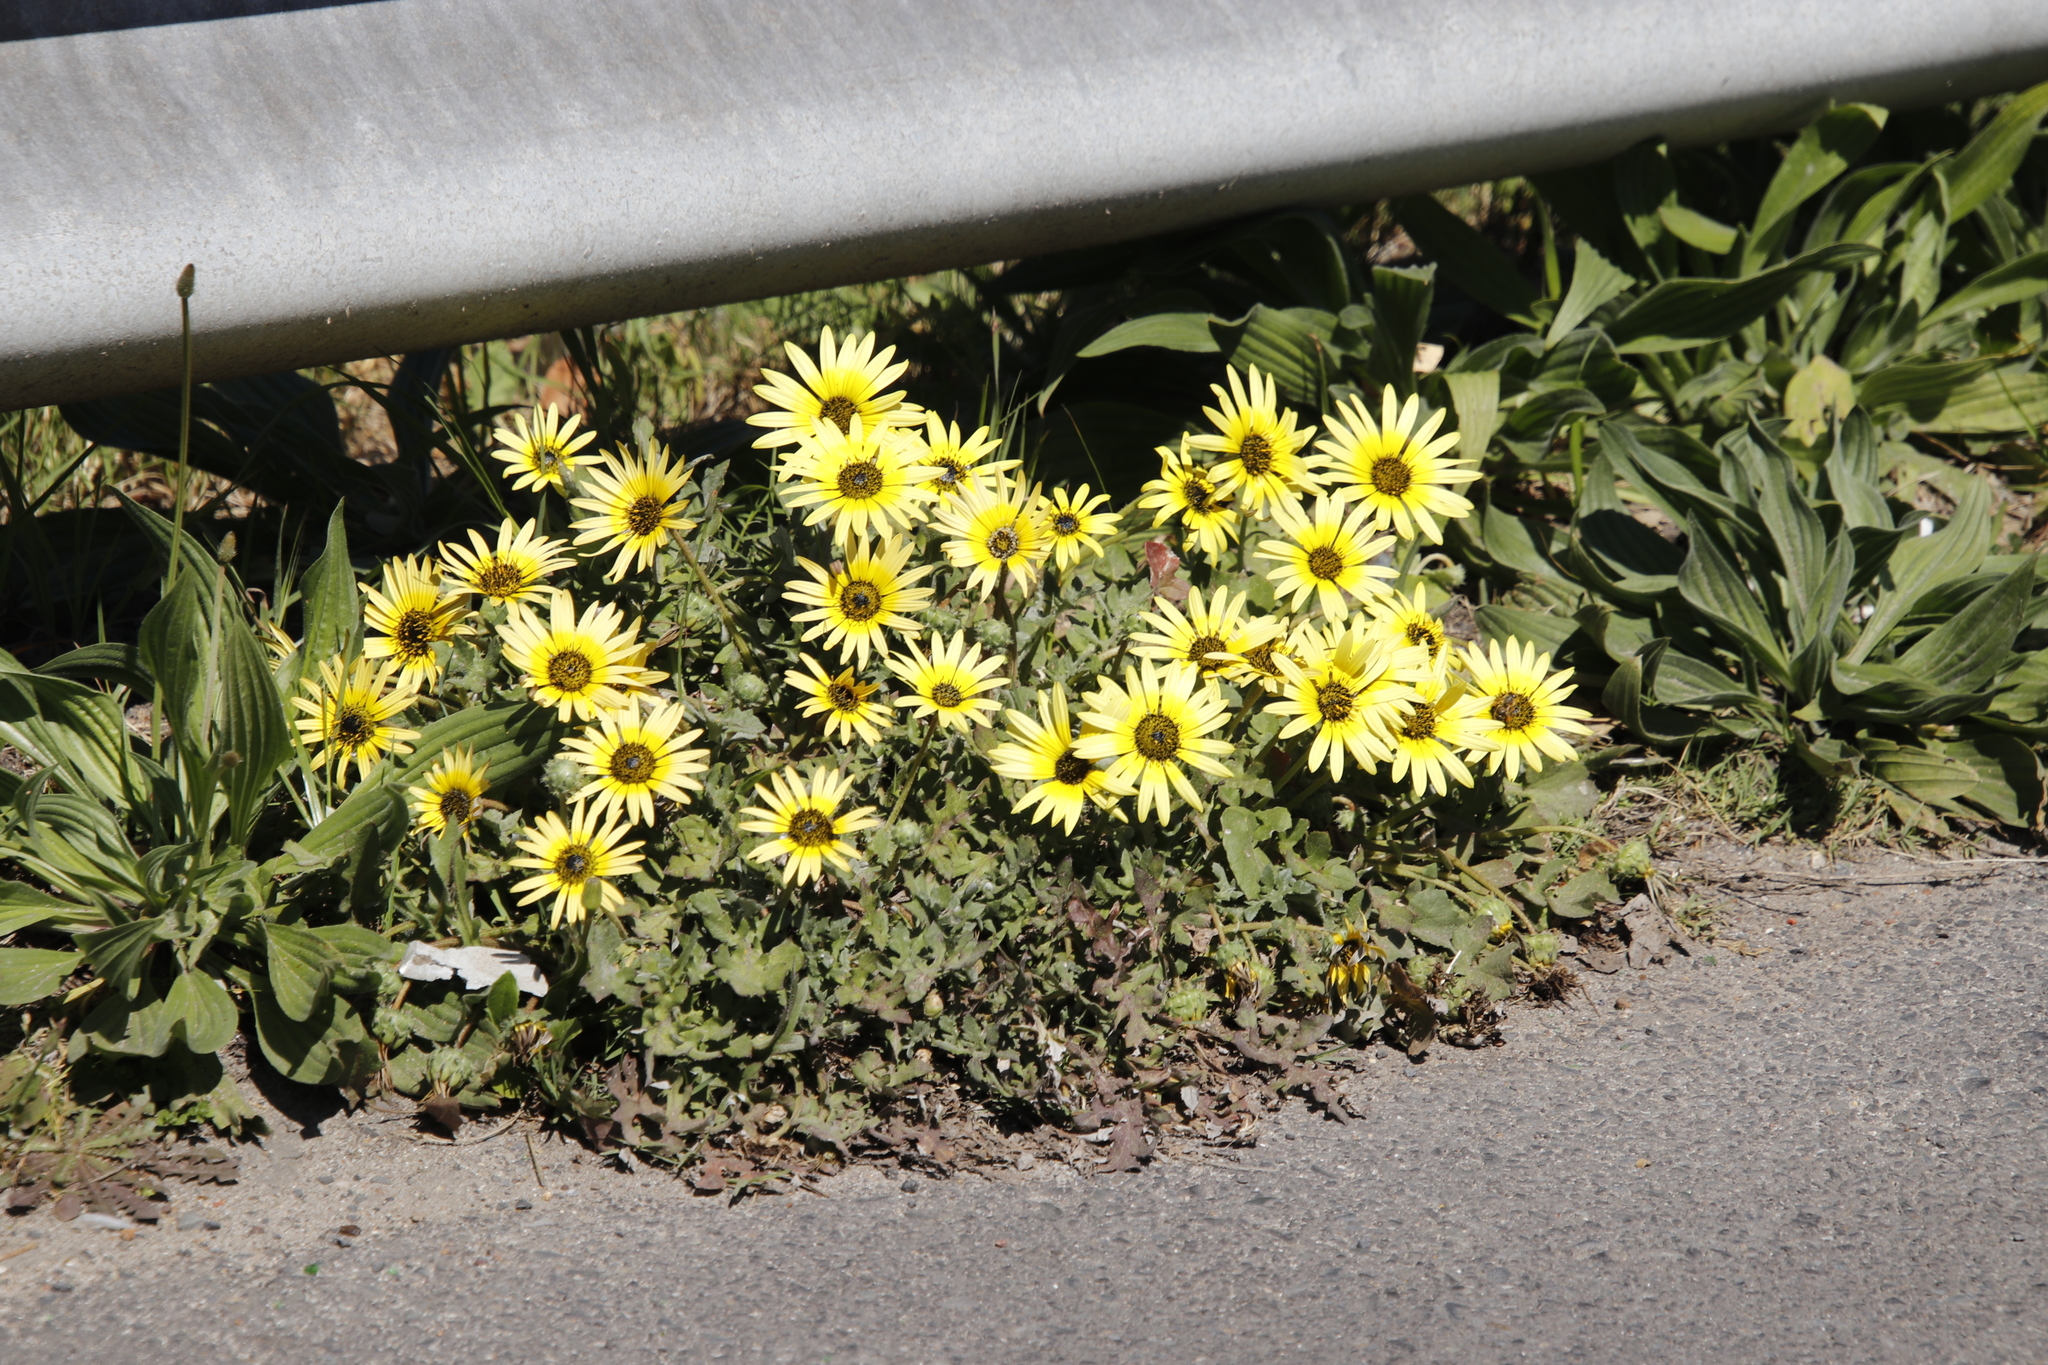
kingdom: Plantae
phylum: Tracheophyta
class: Magnoliopsida
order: Asterales
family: Asteraceae
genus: Arctotheca
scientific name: Arctotheca calendula
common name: Capeweed
